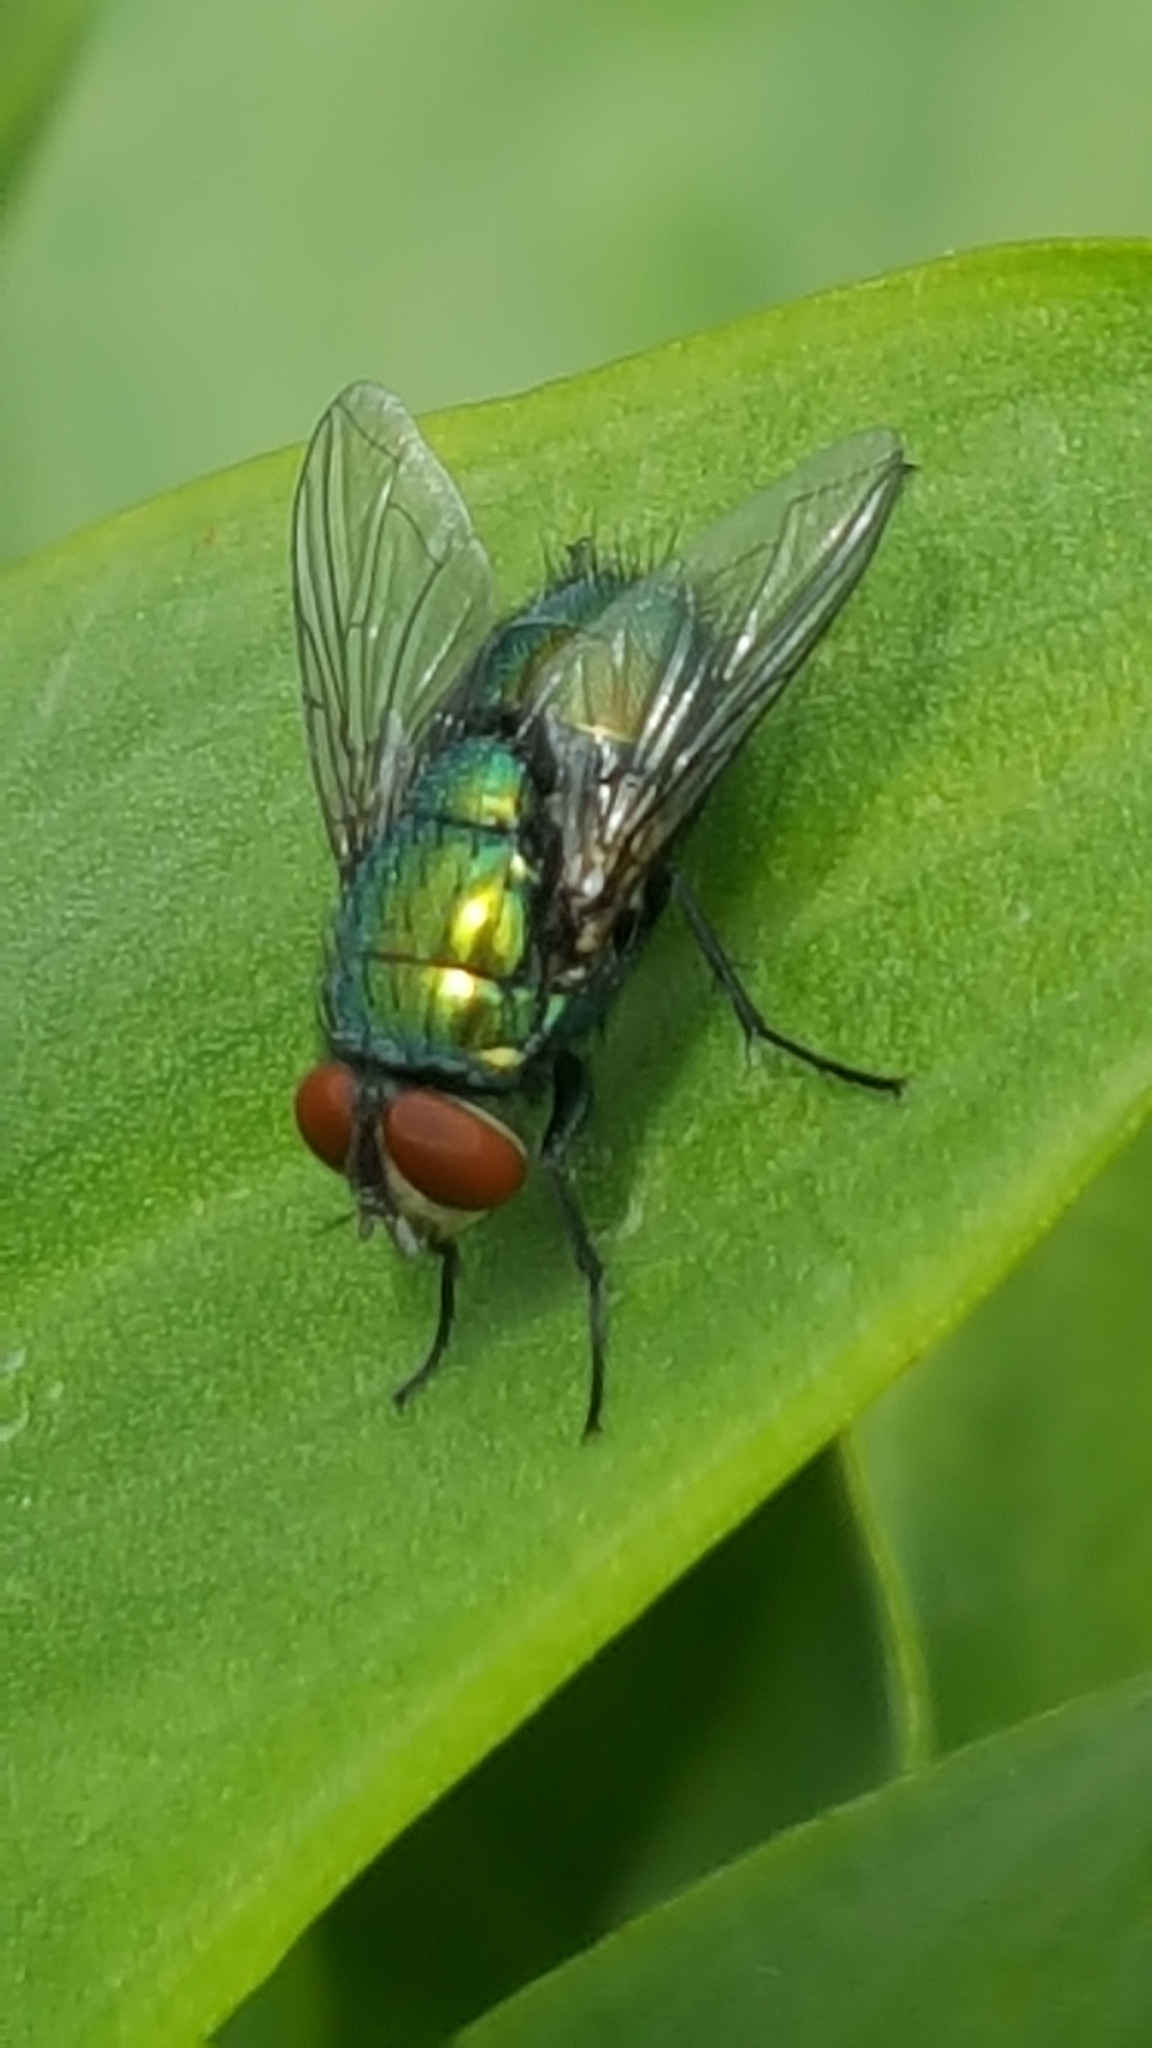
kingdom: Animalia
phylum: Arthropoda
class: Insecta
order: Diptera
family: Calliphoridae
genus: Lucilia
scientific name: Lucilia sericata
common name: Blow fly
